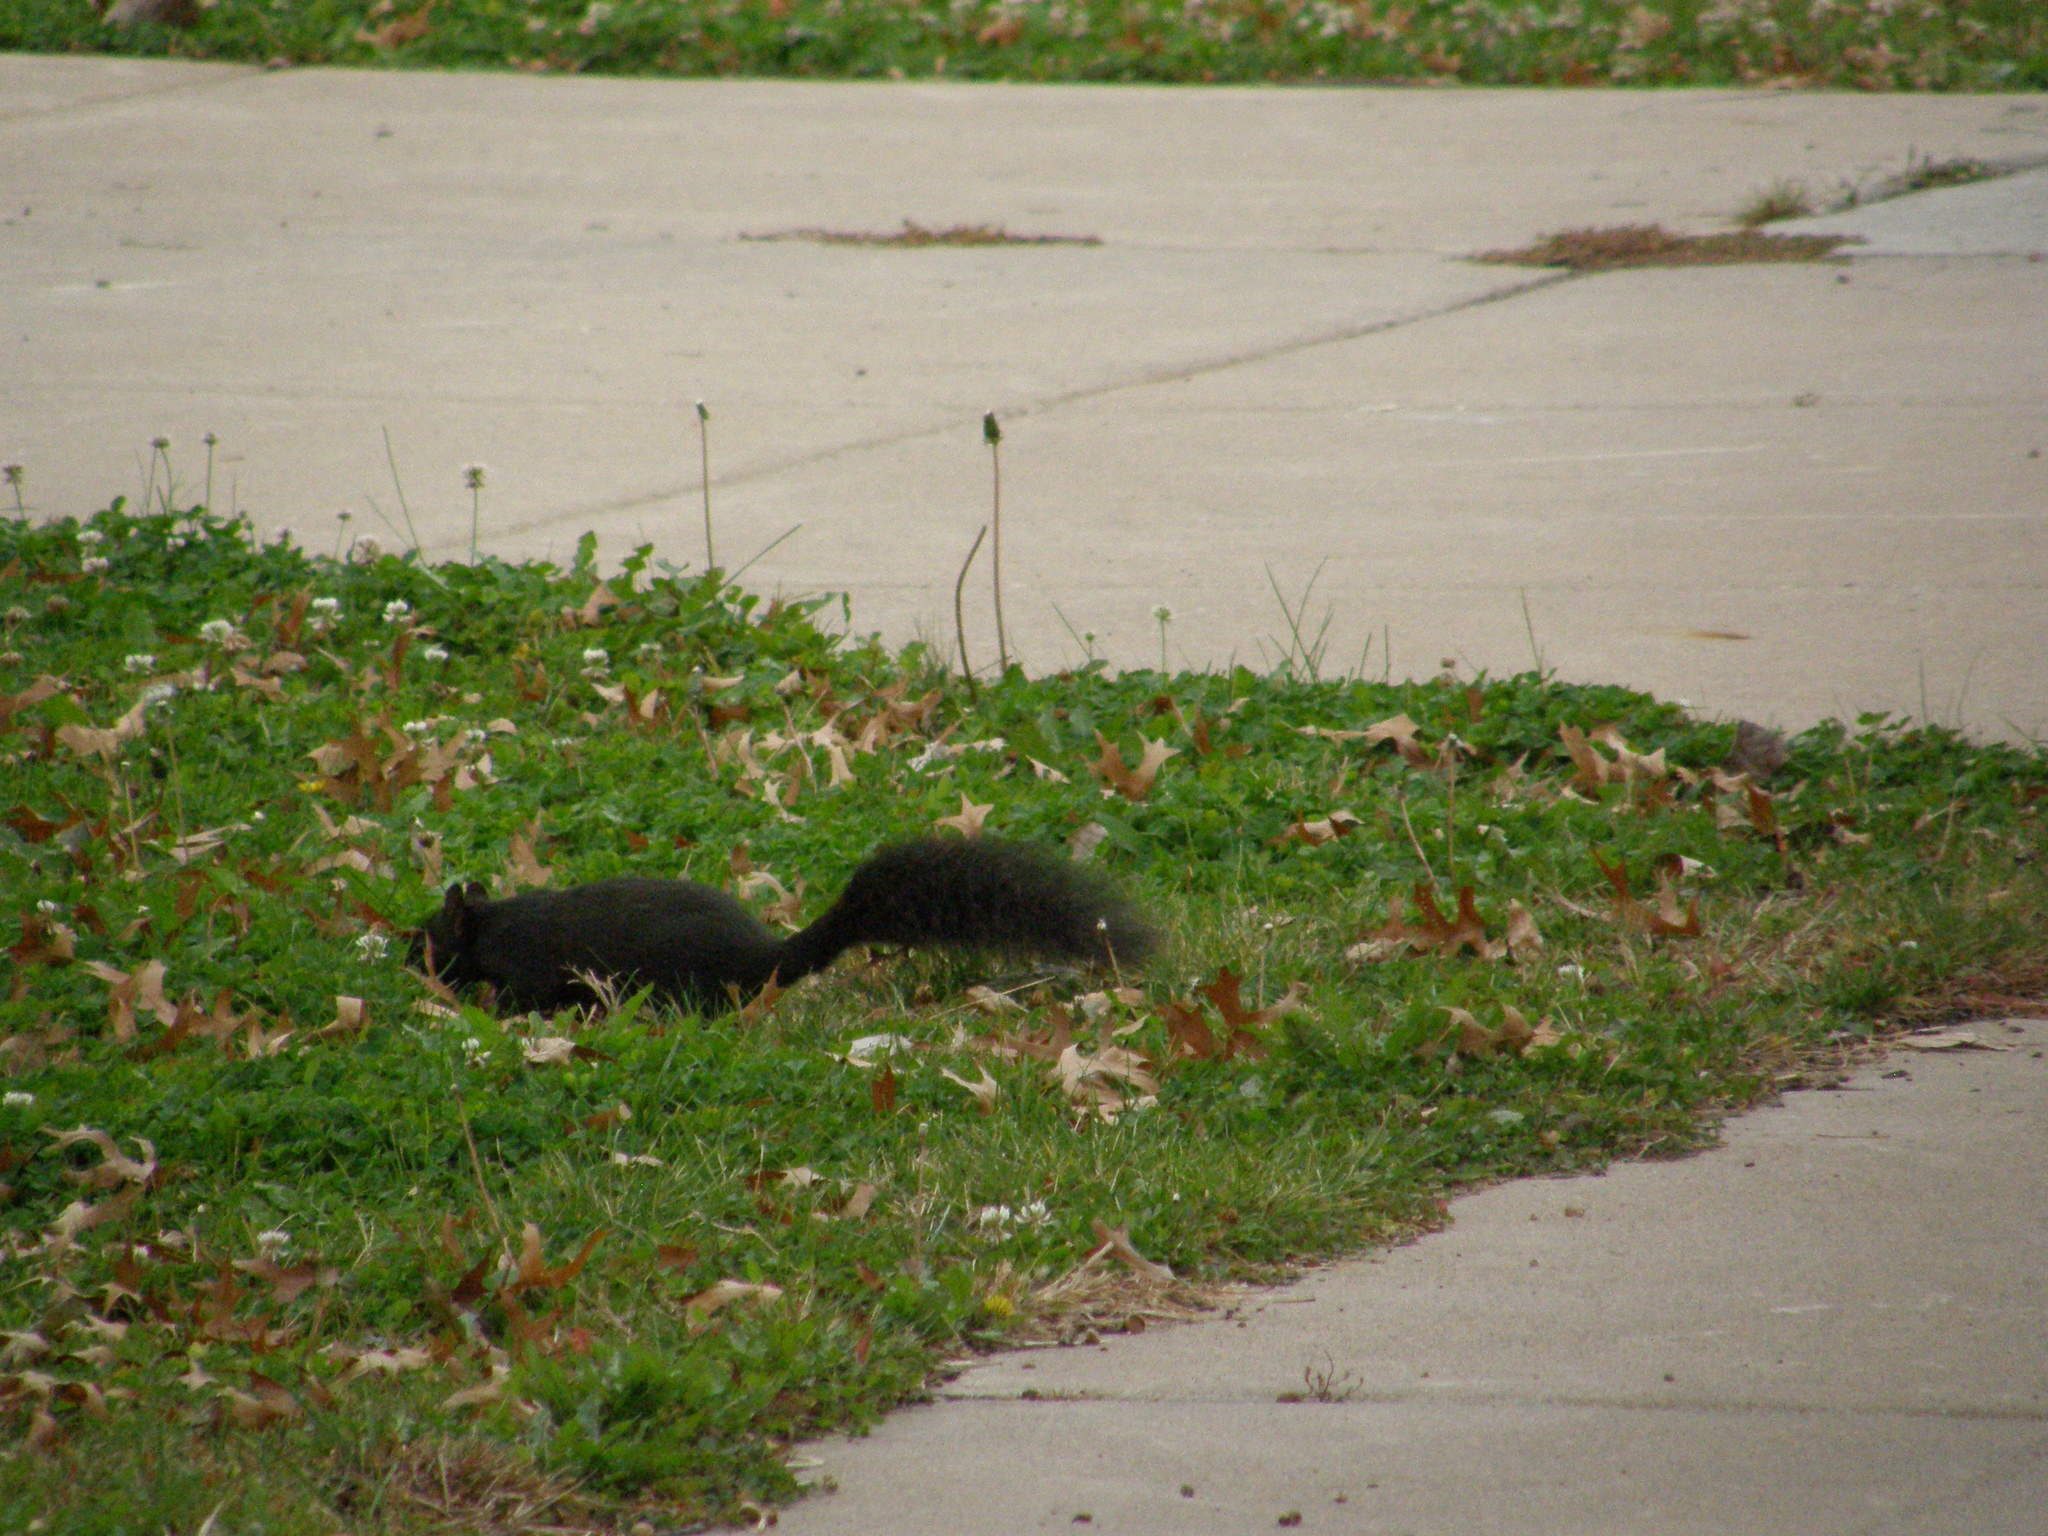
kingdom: Animalia
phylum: Chordata
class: Mammalia
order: Rodentia
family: Sciuridae
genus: Sciurus
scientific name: Sciurus carolinensis
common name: Eastern gray squirrel
